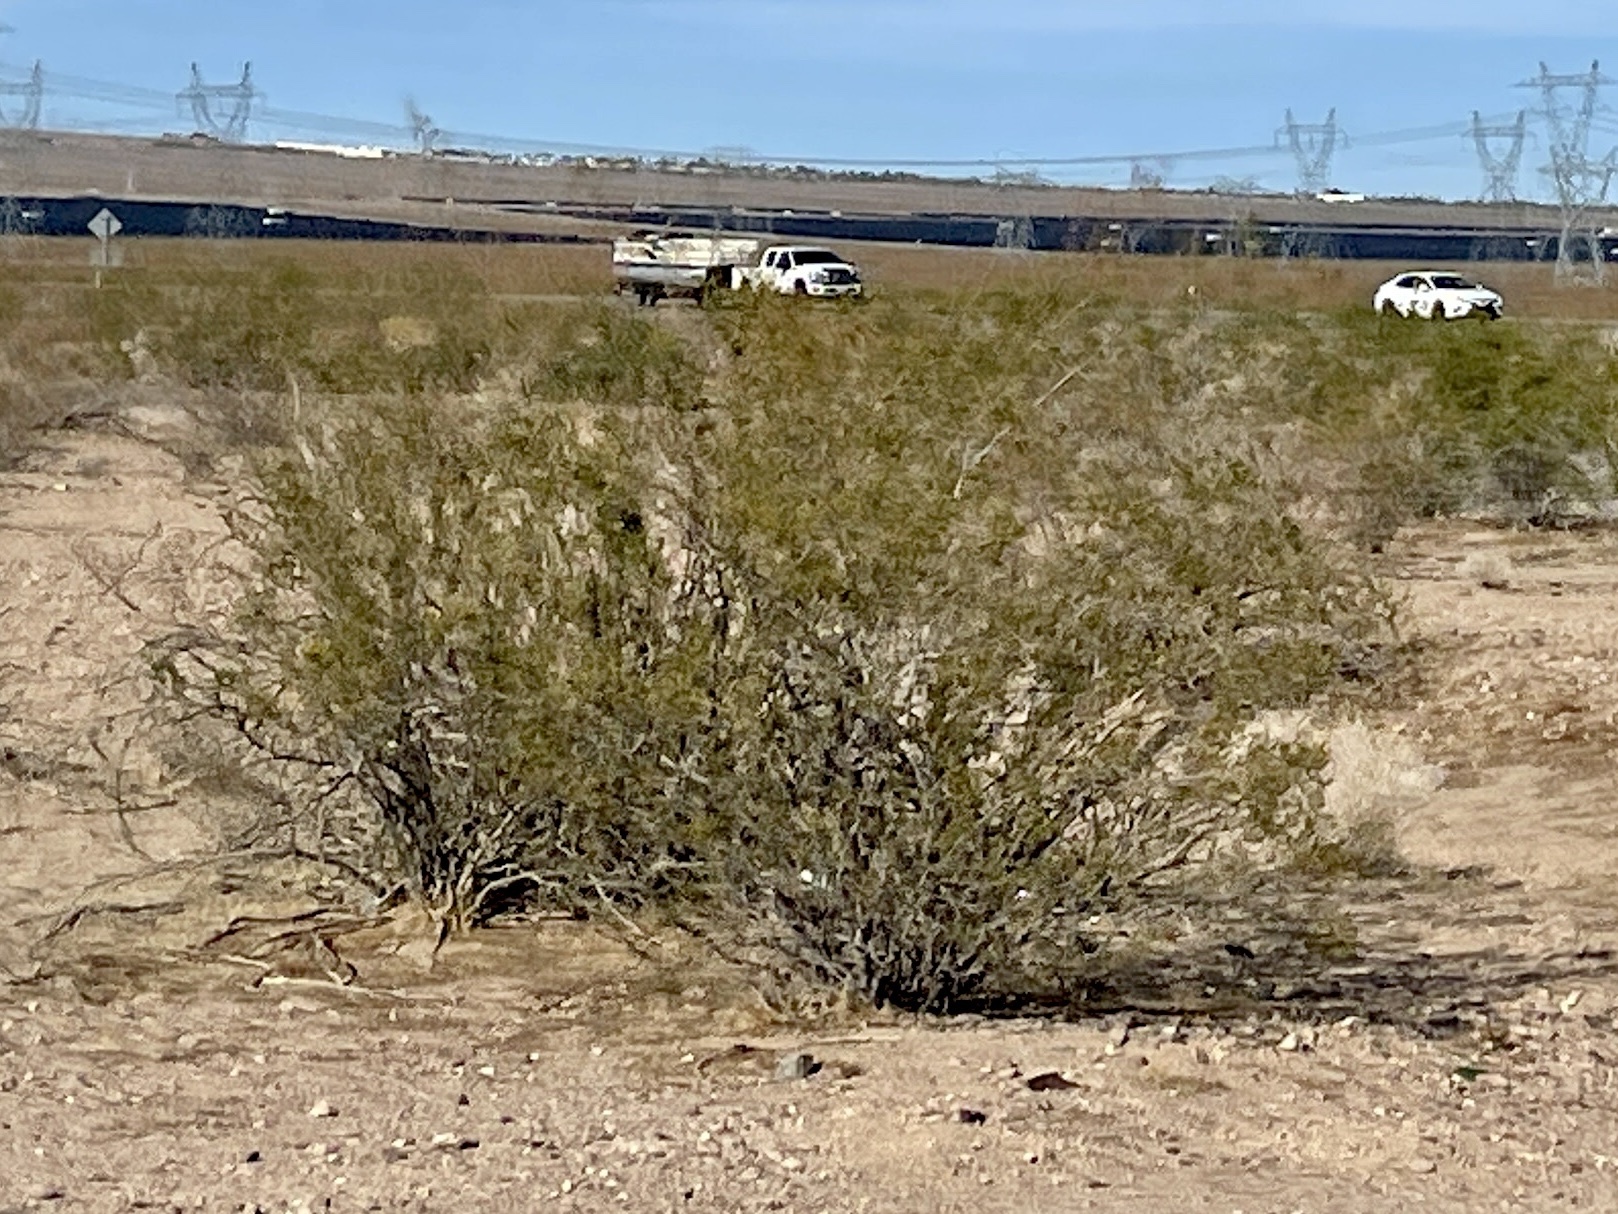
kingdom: Plantae
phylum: Tracheophyta
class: Magnoliopsida
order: Zygophyllales
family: Zygophyllaceae
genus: Larrea
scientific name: Larrea tridentata
